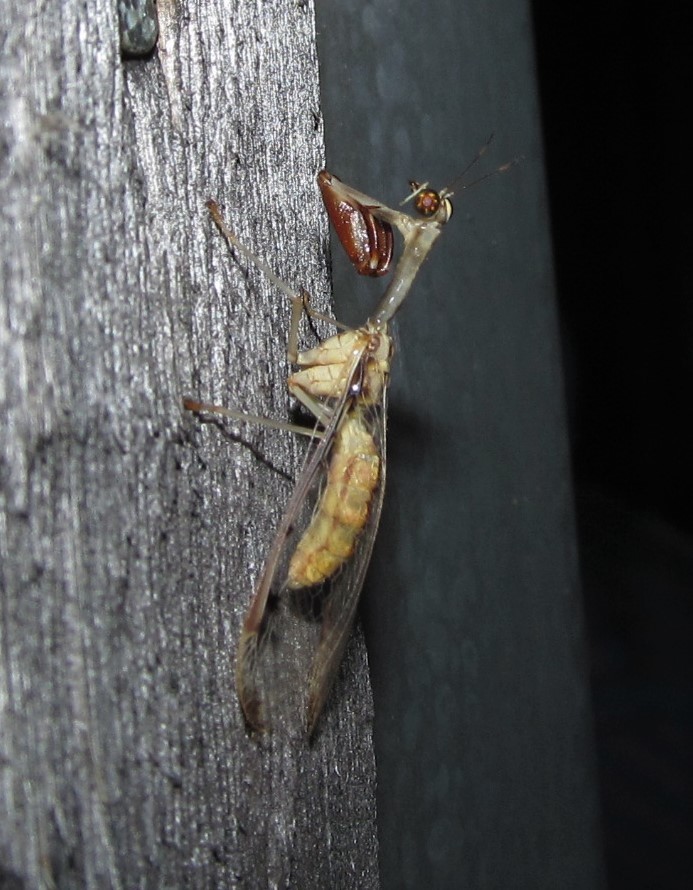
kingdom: Animalia
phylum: Arthropoda
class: Insecta
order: Neuroptera
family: Mantispidae
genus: Dicromantispa
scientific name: Dicromantispa interrupta
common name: Four-spotted mantidfly
